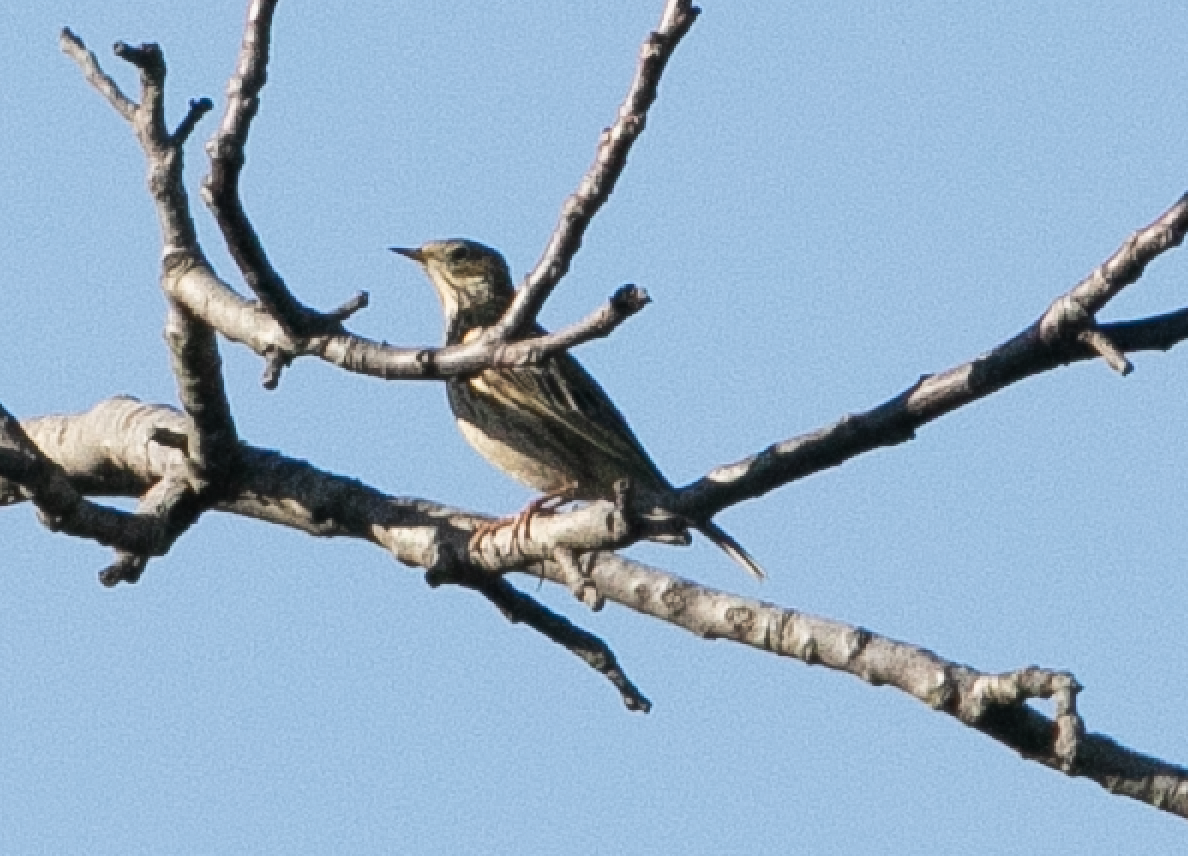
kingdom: Animalia
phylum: Chordata
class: Aves
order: Passeriformes
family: Motacillidae
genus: Anthus
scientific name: Anthus pratensis
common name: Meadow pipit
